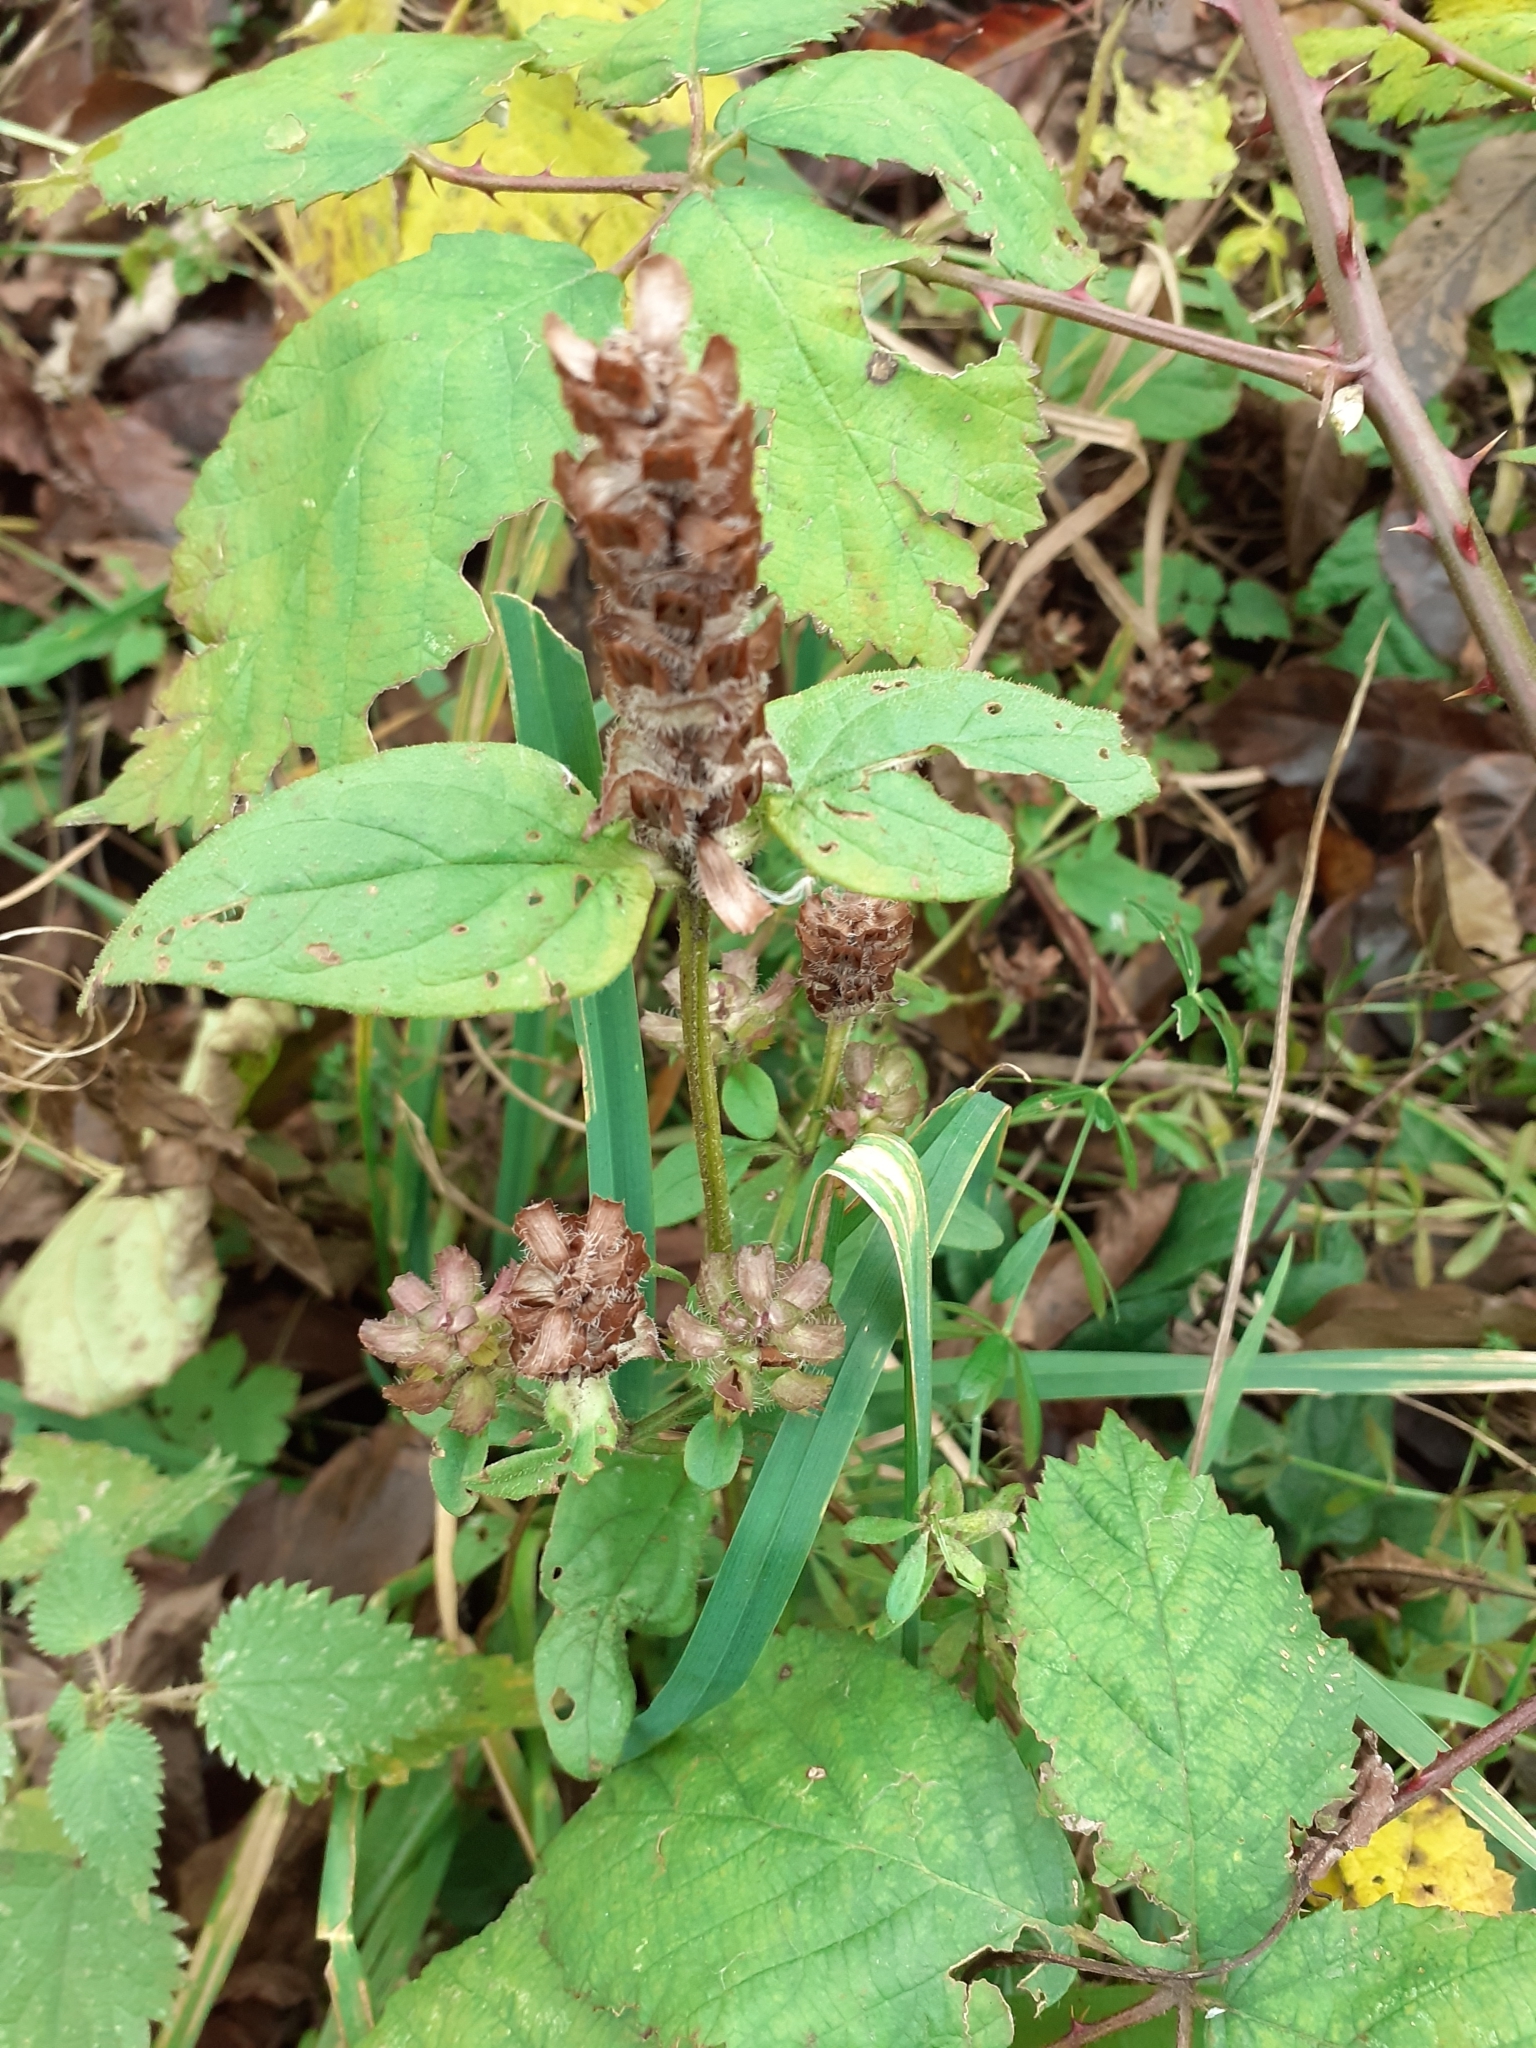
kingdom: Plantae
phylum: Tracheophyta
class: Magnoliopsida
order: Lamiales
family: Lamiaceae
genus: Prunella
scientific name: Prunella vulgaris
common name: Heal-all
